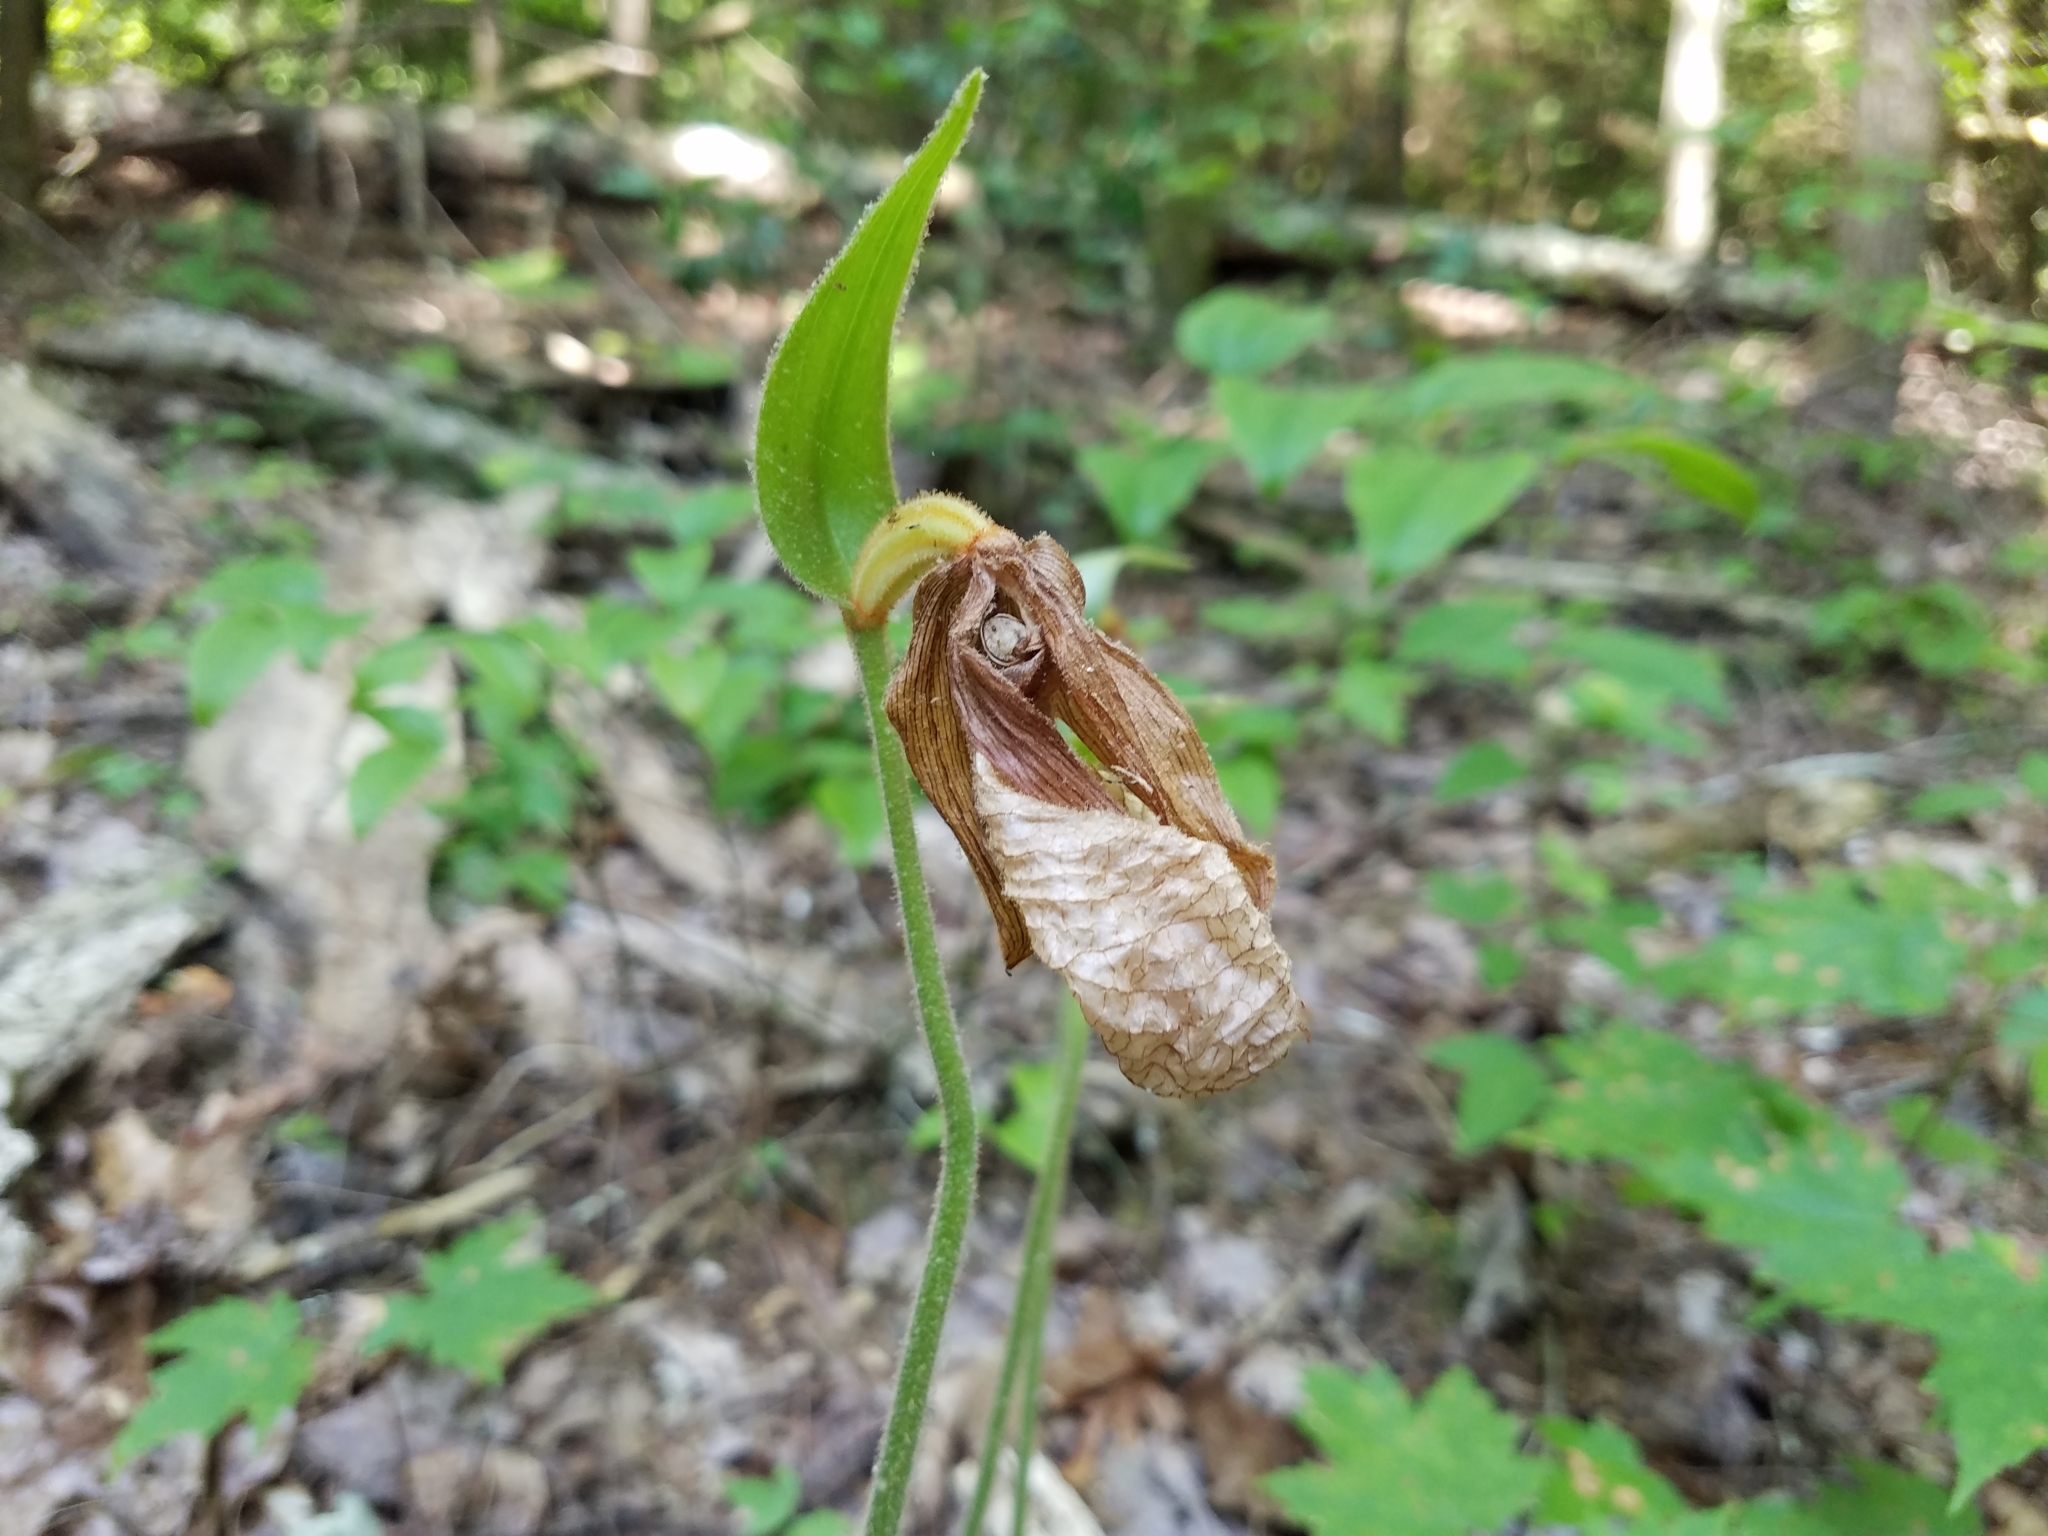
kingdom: Plantae
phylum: Tracheophyta
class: Liliopsida
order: Asparagales
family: Orchidaceae
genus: Cypripedium
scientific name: Cypripedium acaule
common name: Pink lady's-slipper
